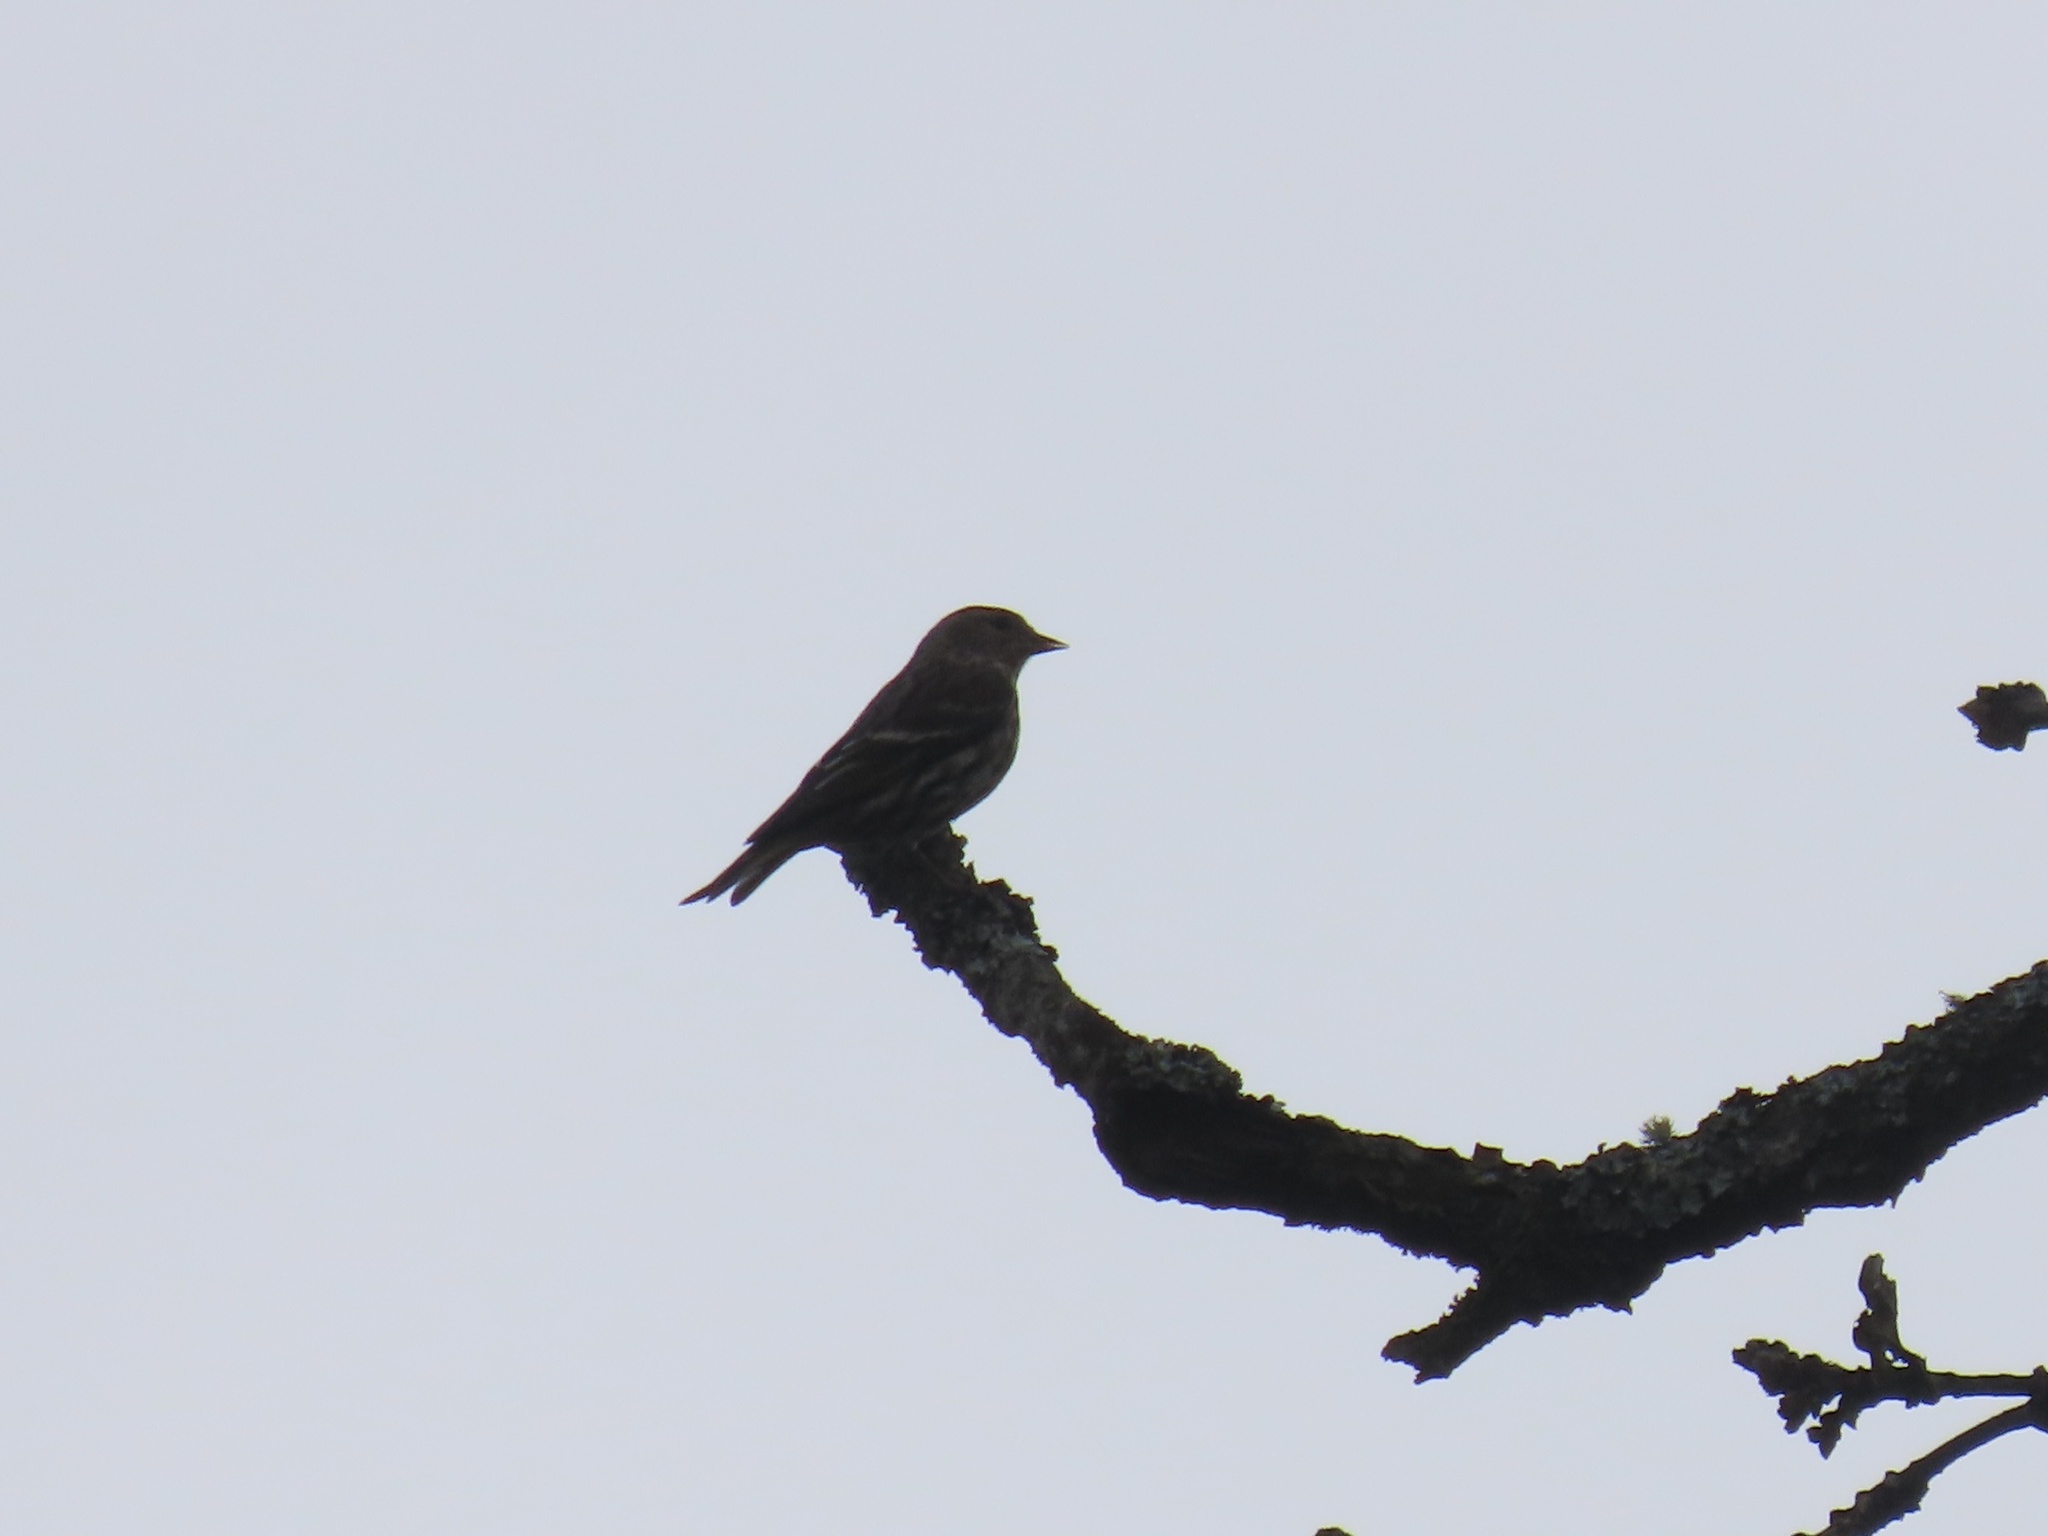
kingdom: Animalia
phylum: Chordata
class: Aves
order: Passeriformes
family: Fringillidae
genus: Spinus
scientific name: Spinus pinus
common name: Pine siskin
